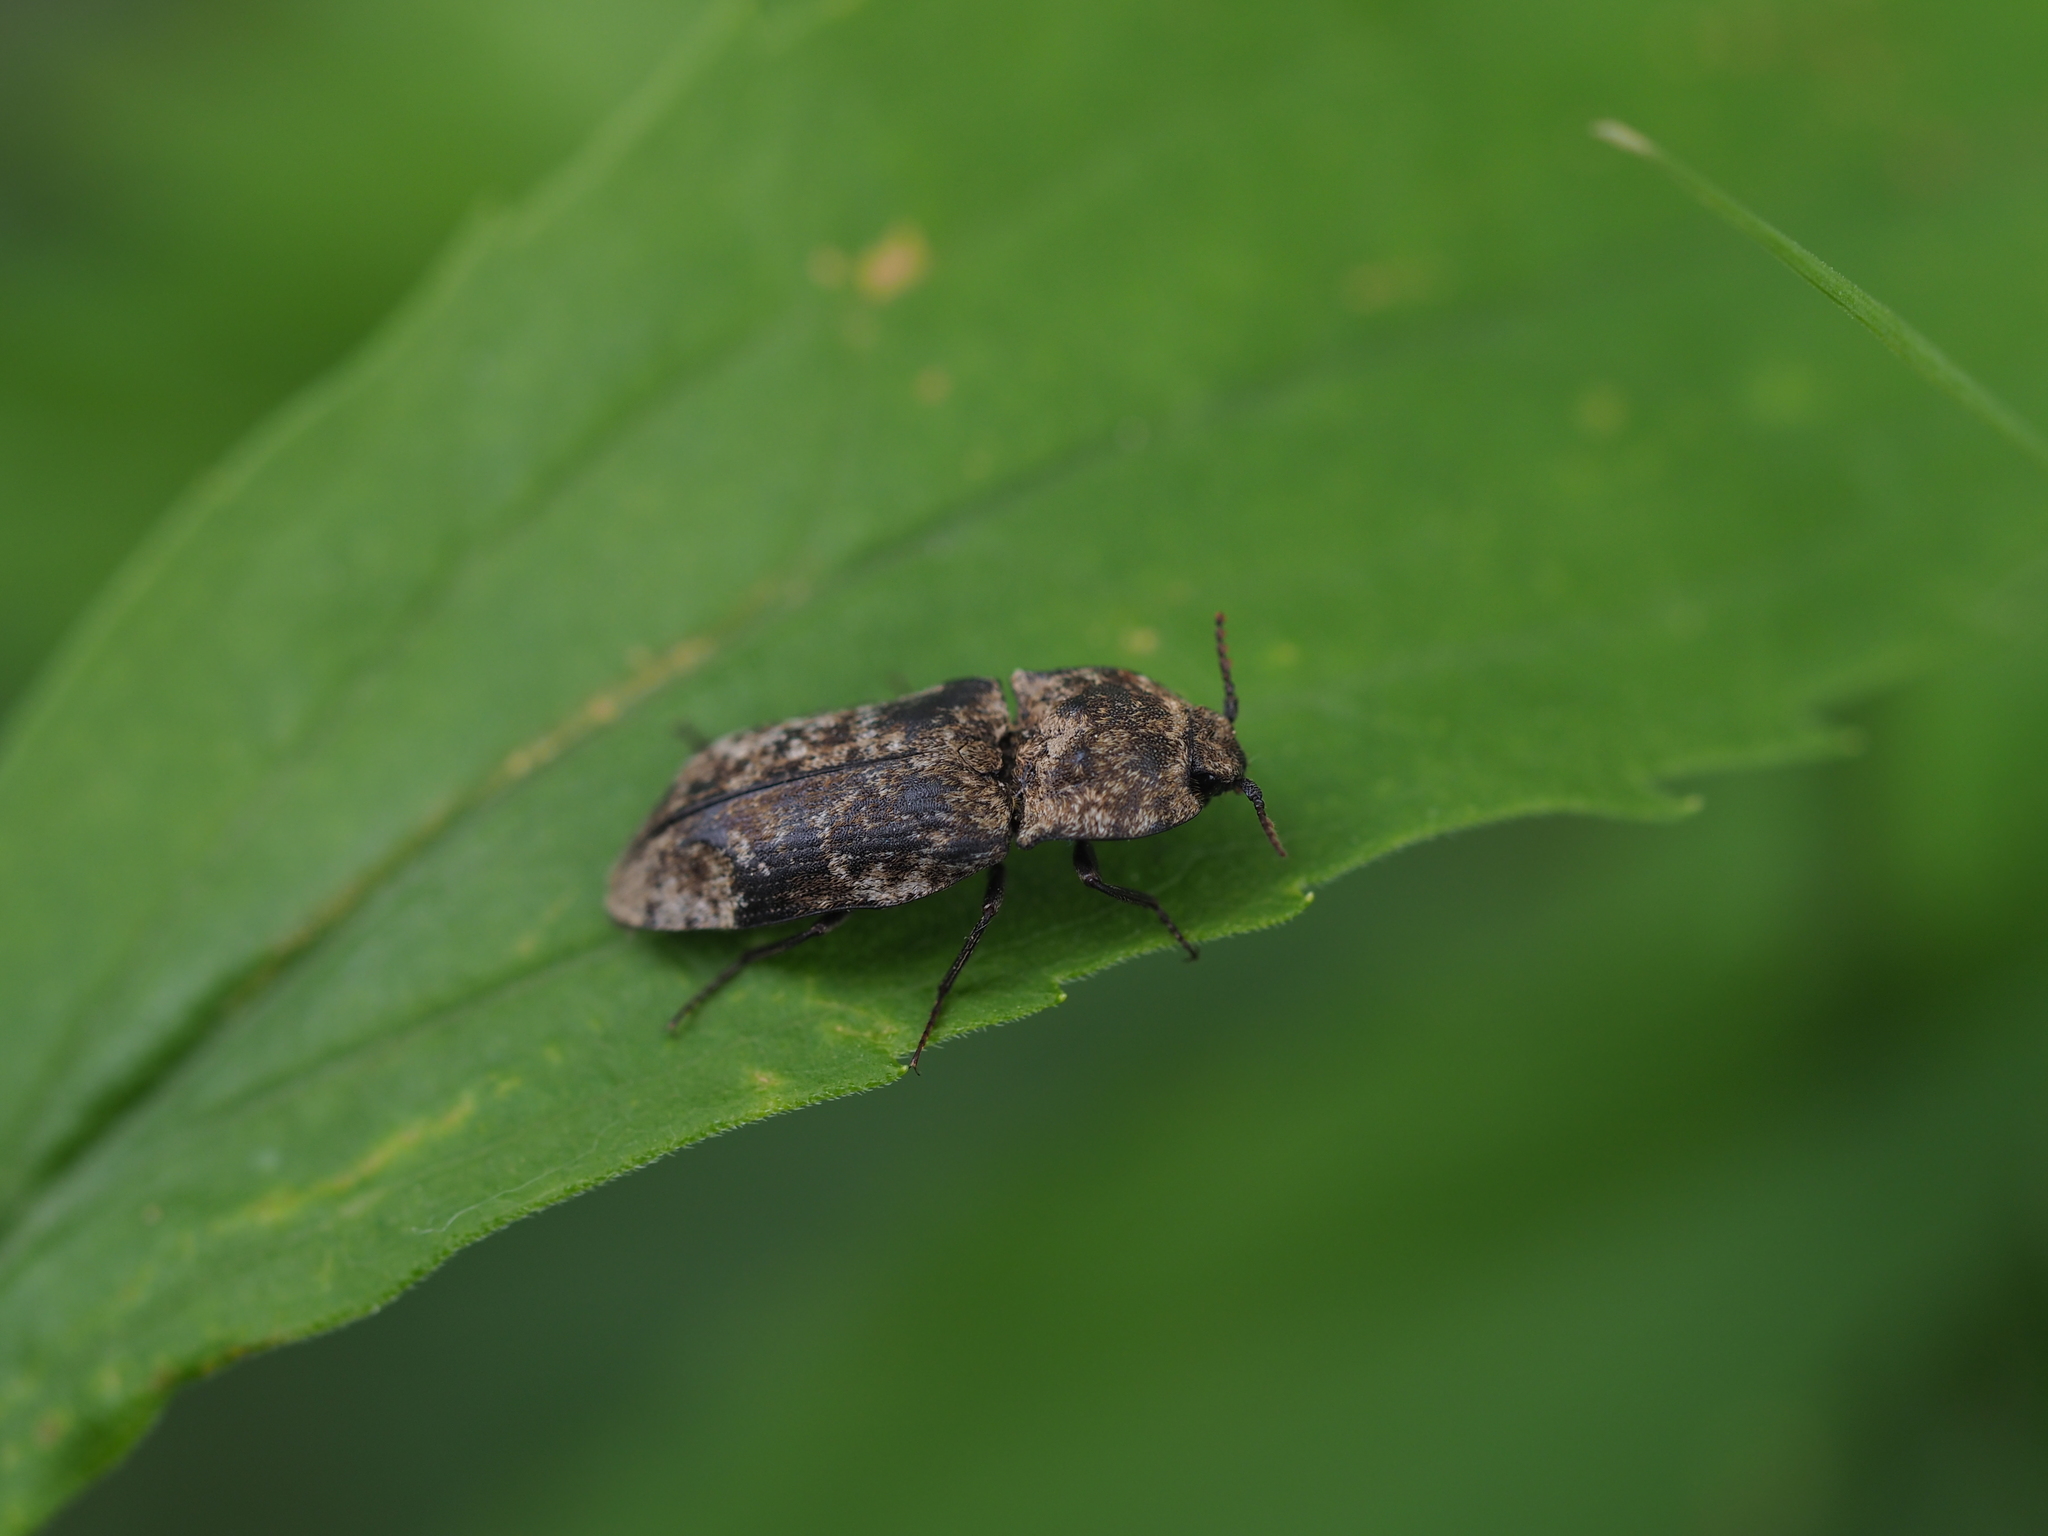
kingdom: Animalia
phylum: Arthropoda
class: Insecta
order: Coleoptera
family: Elateridae
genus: Agrypnus
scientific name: Agrypnus murinus
